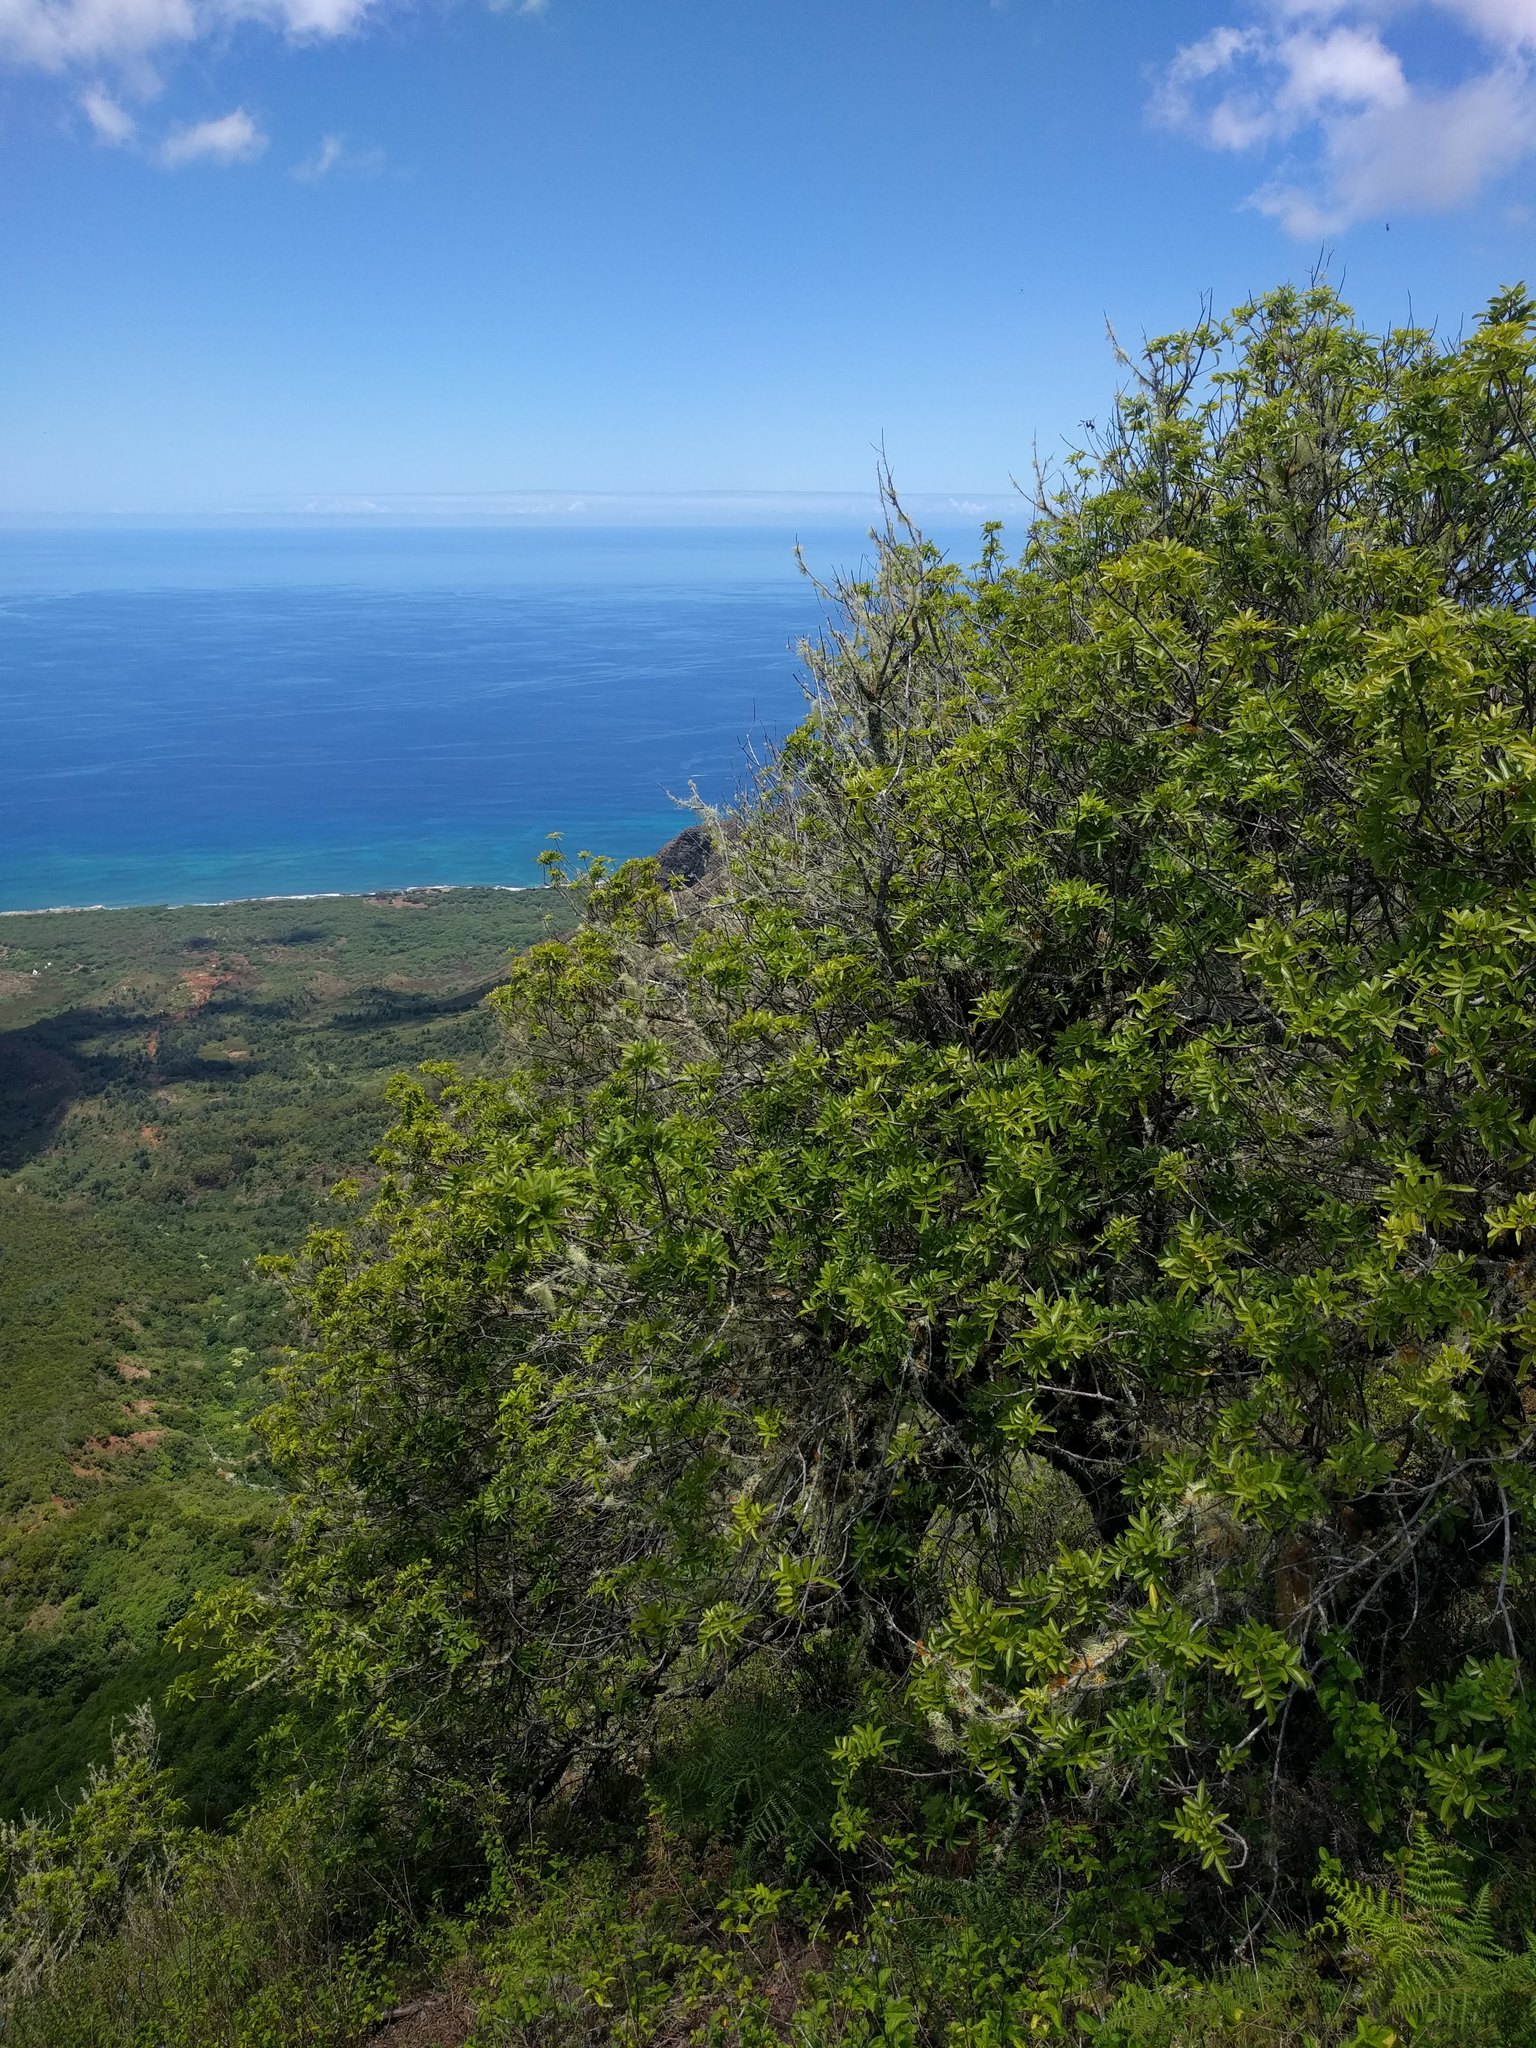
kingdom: Plantae
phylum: Tracheophyta
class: Magnoliopsida
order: Sapindales
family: Anacardiaceae
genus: Schinus
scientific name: Schinus terebinthifolia
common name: Brazilian peppertree
